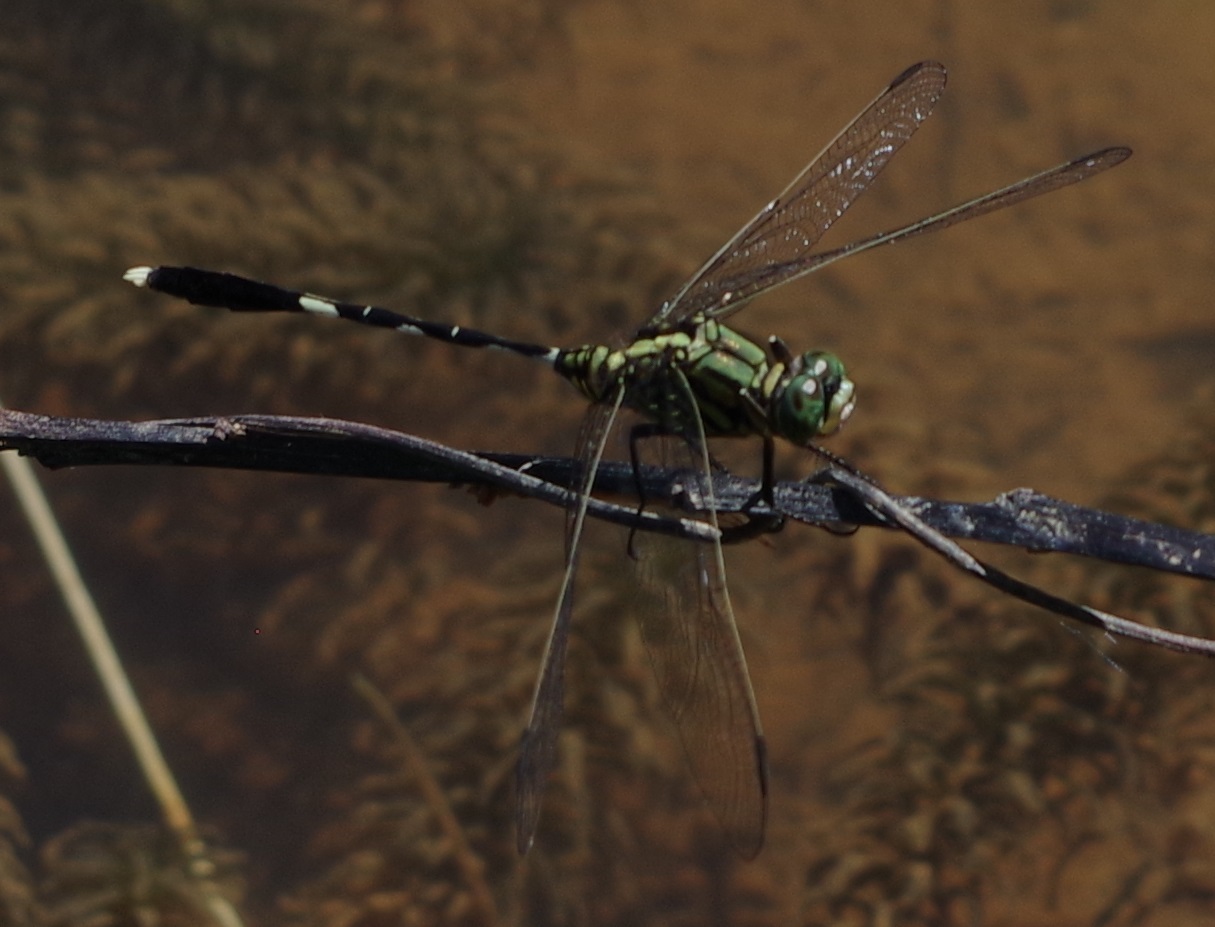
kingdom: Animalia
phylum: Arthropoda
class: Insecta
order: Odonata
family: Libellulidae
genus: Orthetrum
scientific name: Orthetrum sabina
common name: Slender skimmer
